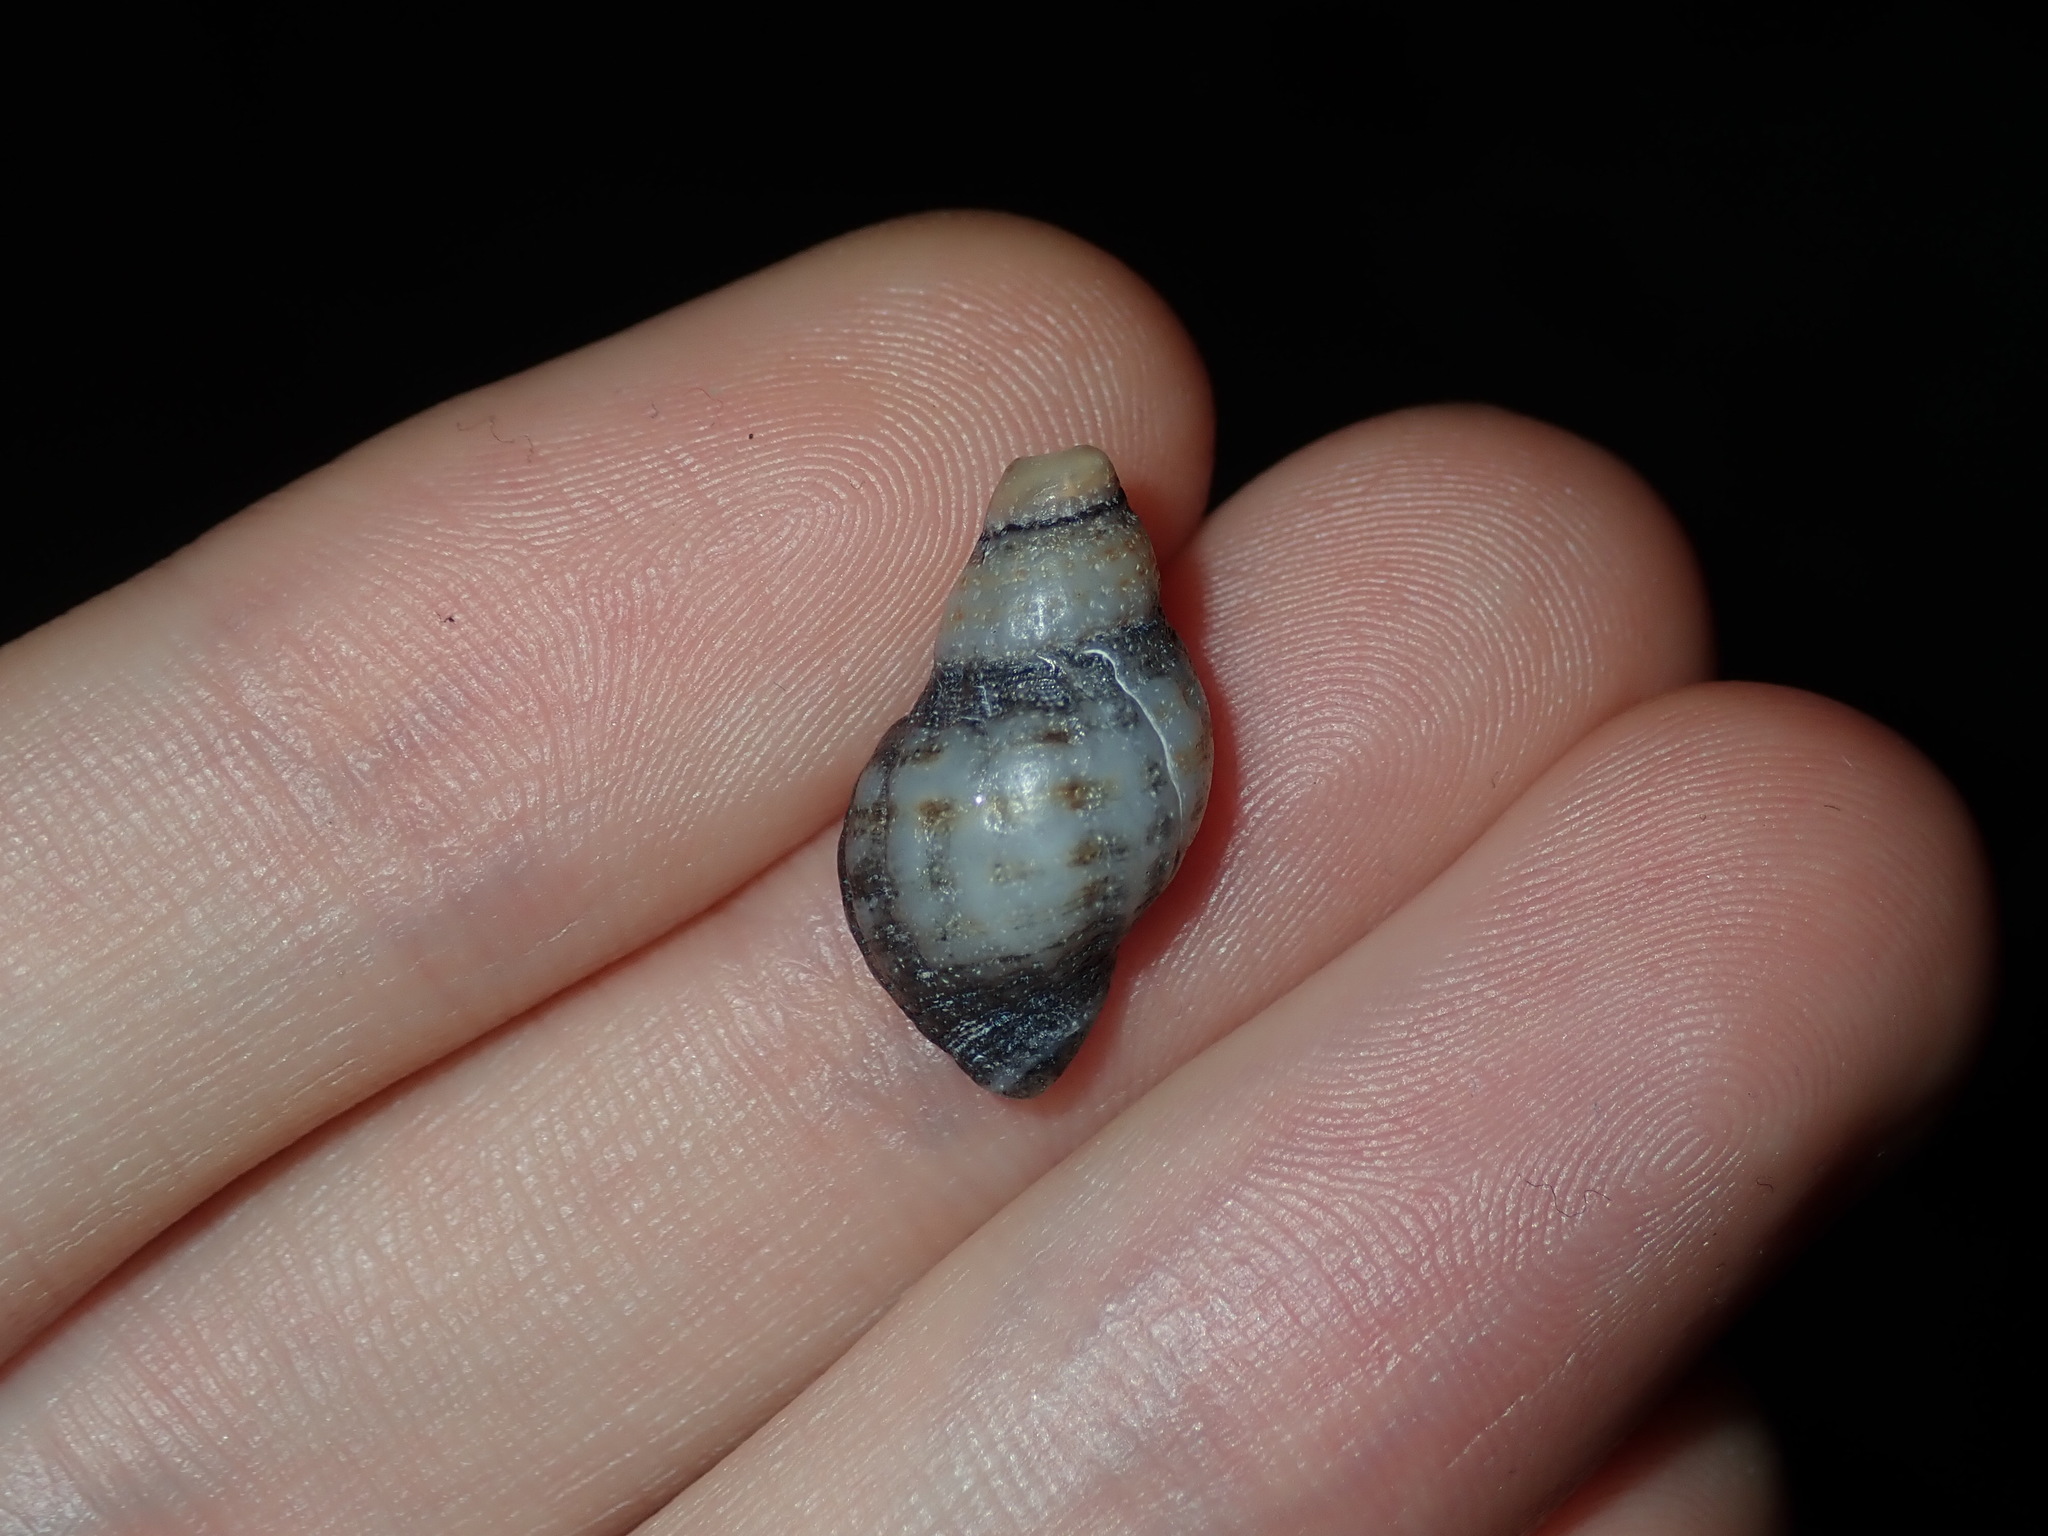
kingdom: Animalia
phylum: Mollusca
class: Gastropoda
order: Neogastropoda
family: Muricidae
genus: Agnewia
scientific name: Agnewia tritoniformis
